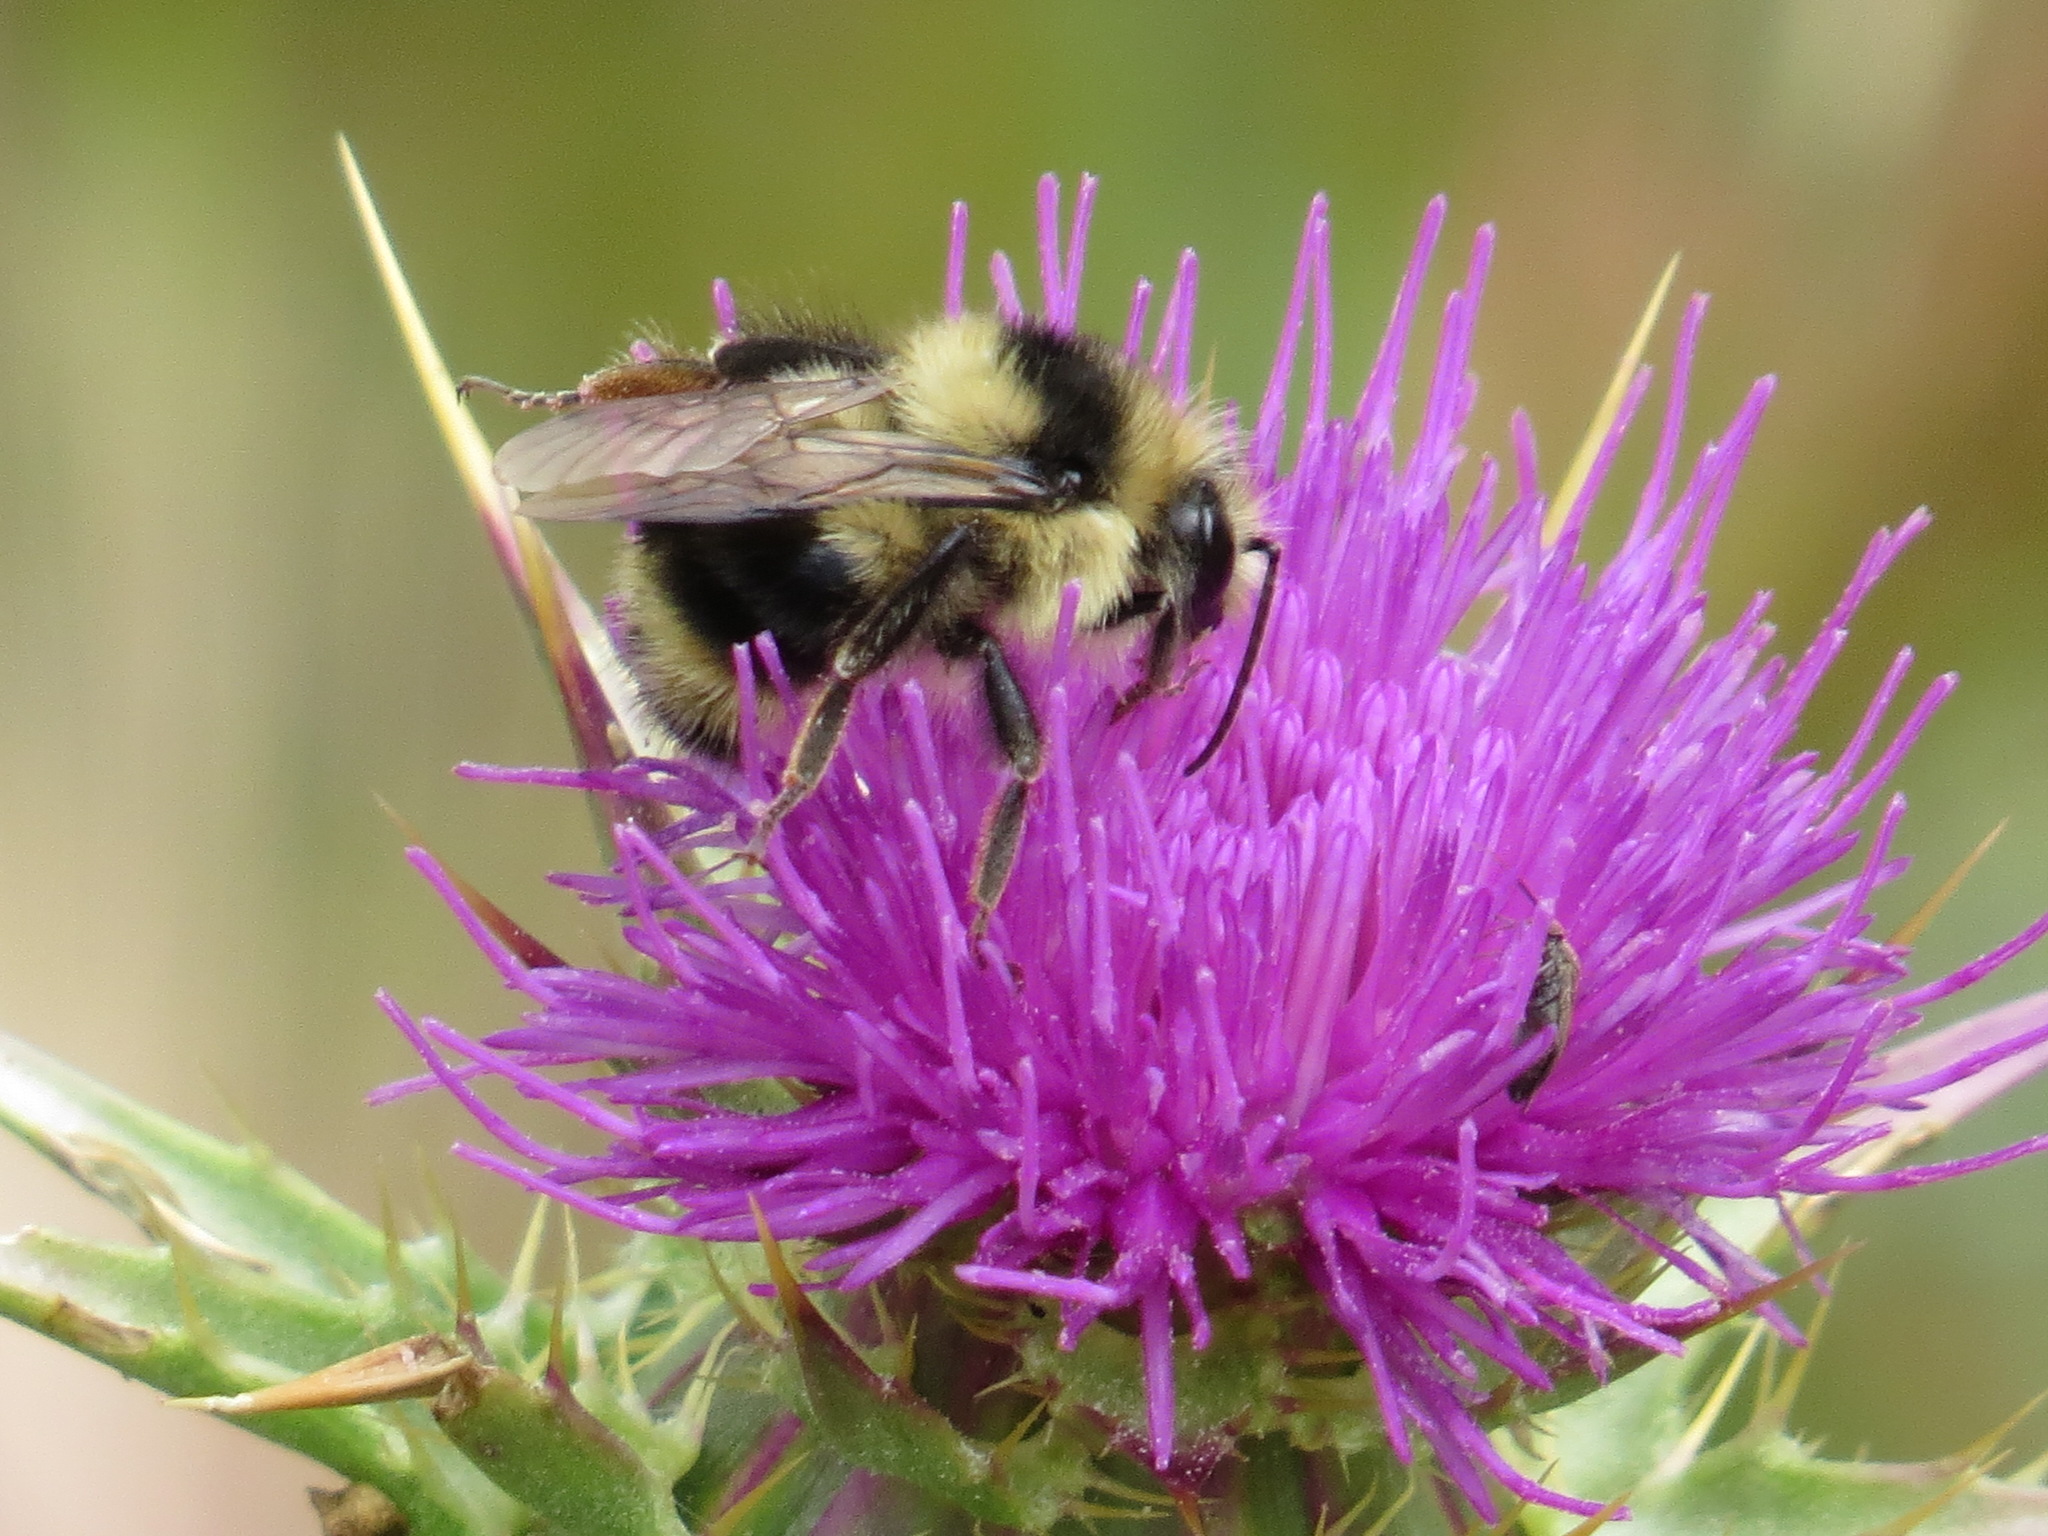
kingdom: Animalia
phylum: Arthropoda
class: Insecta
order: Hymenoptera
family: Apidae
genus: Bombus
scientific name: Bombus melanopygus
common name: Black tail bumble bee
